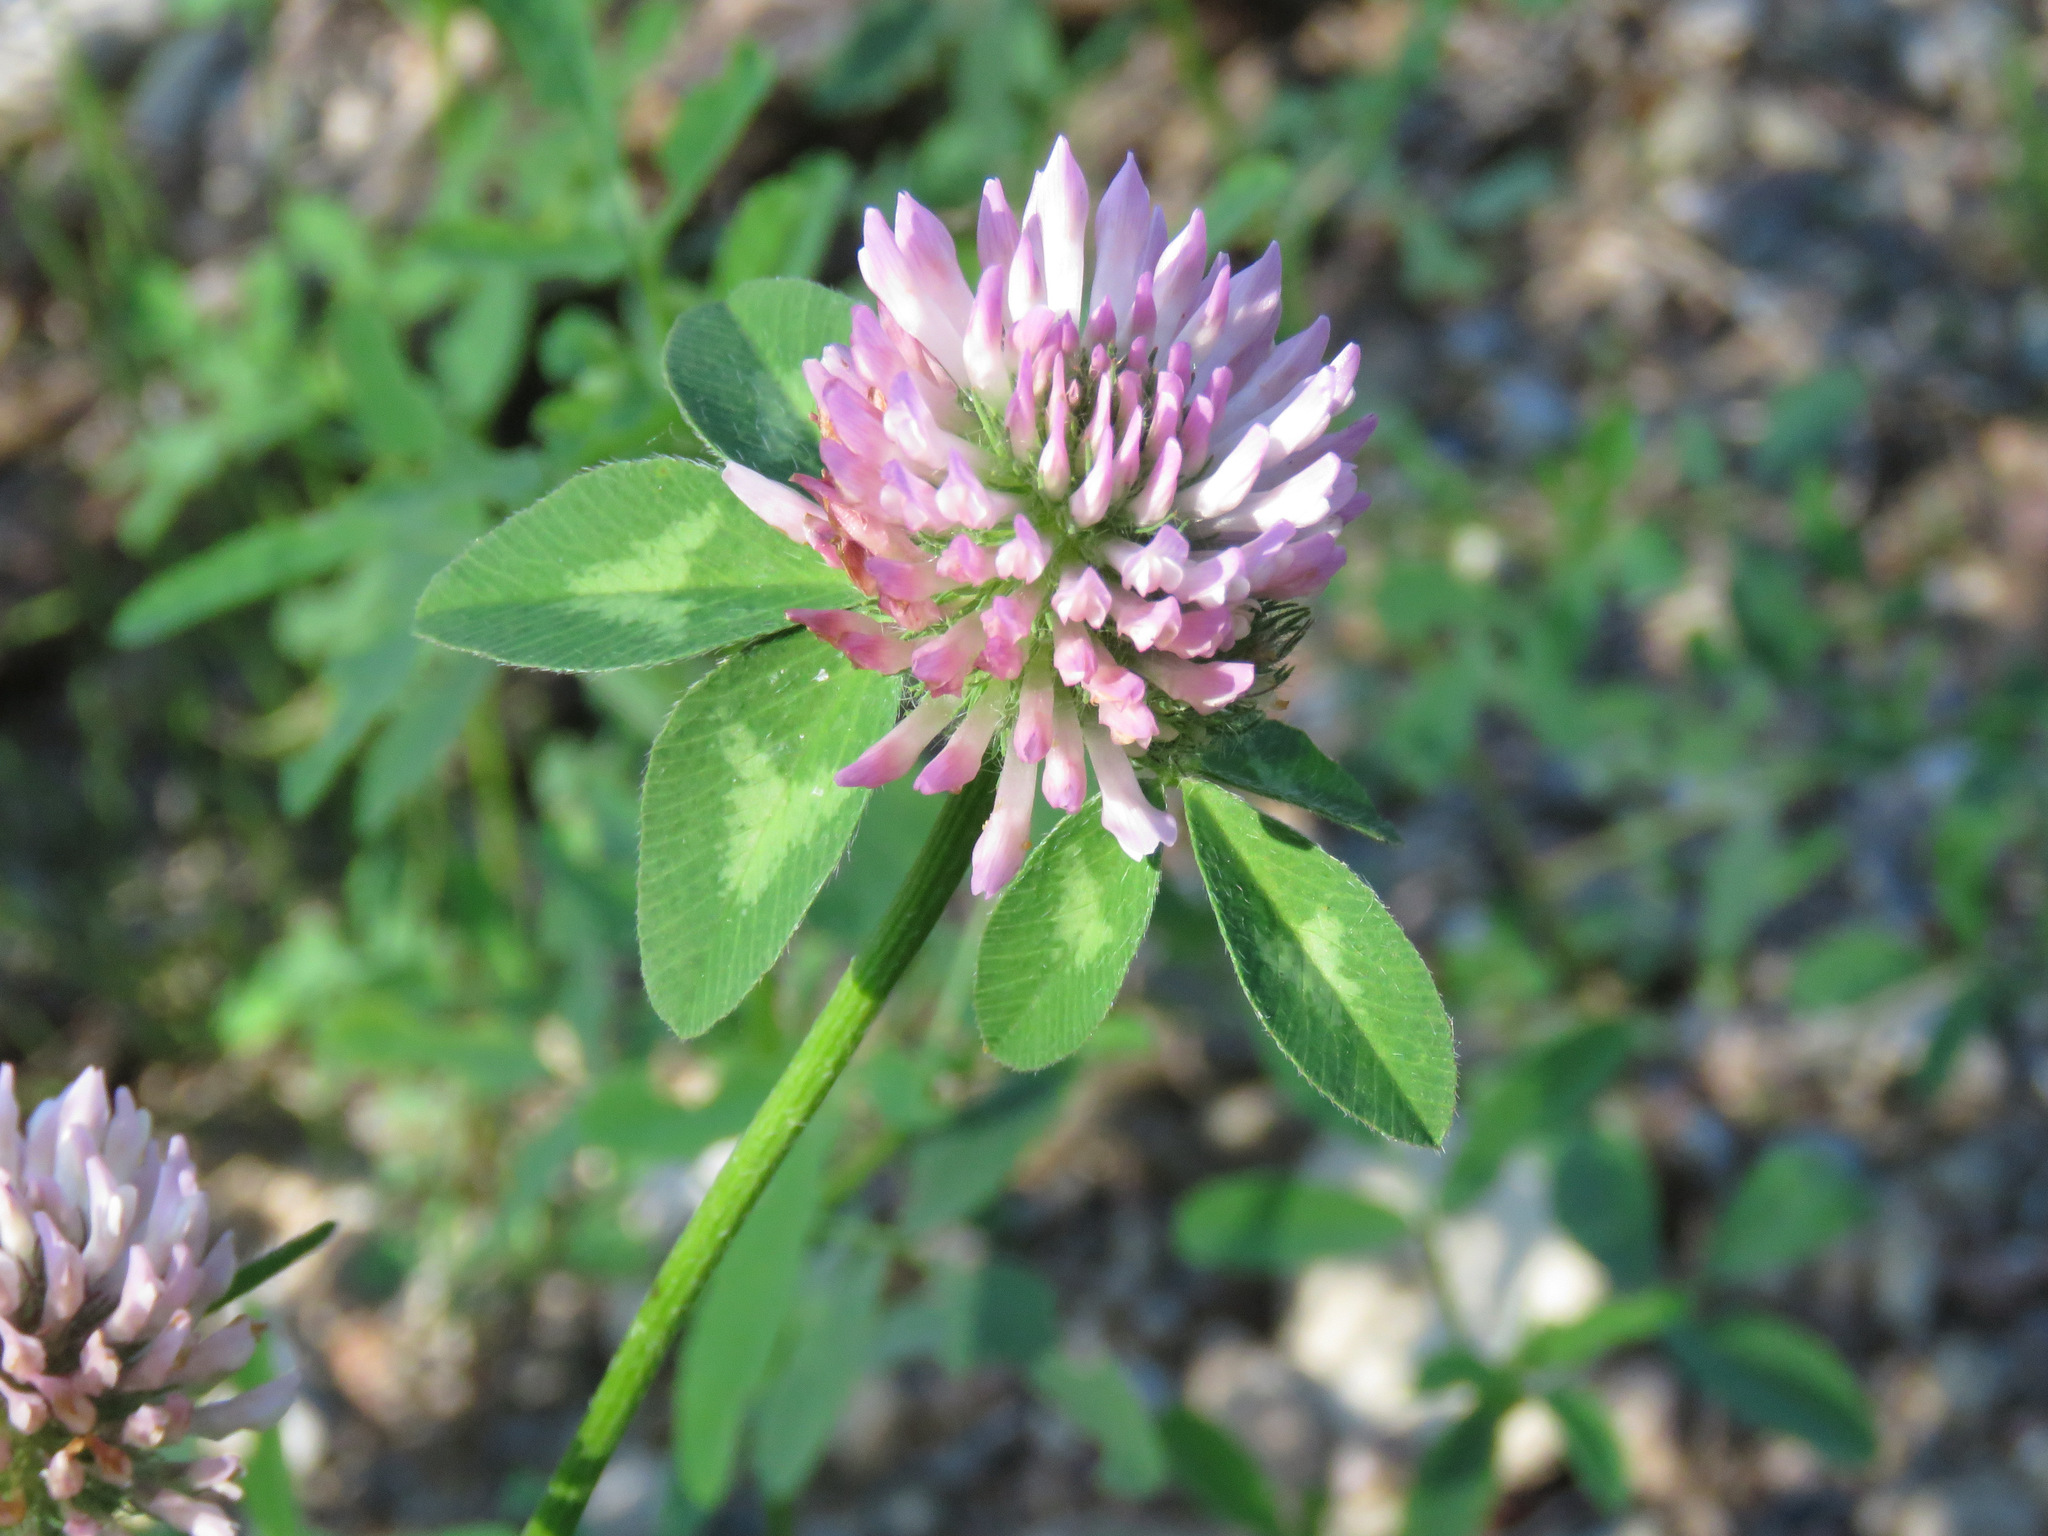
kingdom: Plantae
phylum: Tracheophyta
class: Magnoliopsida
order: Fabales
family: Fabaceae
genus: Trifolium
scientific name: Trifolium pratense
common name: Red clover
